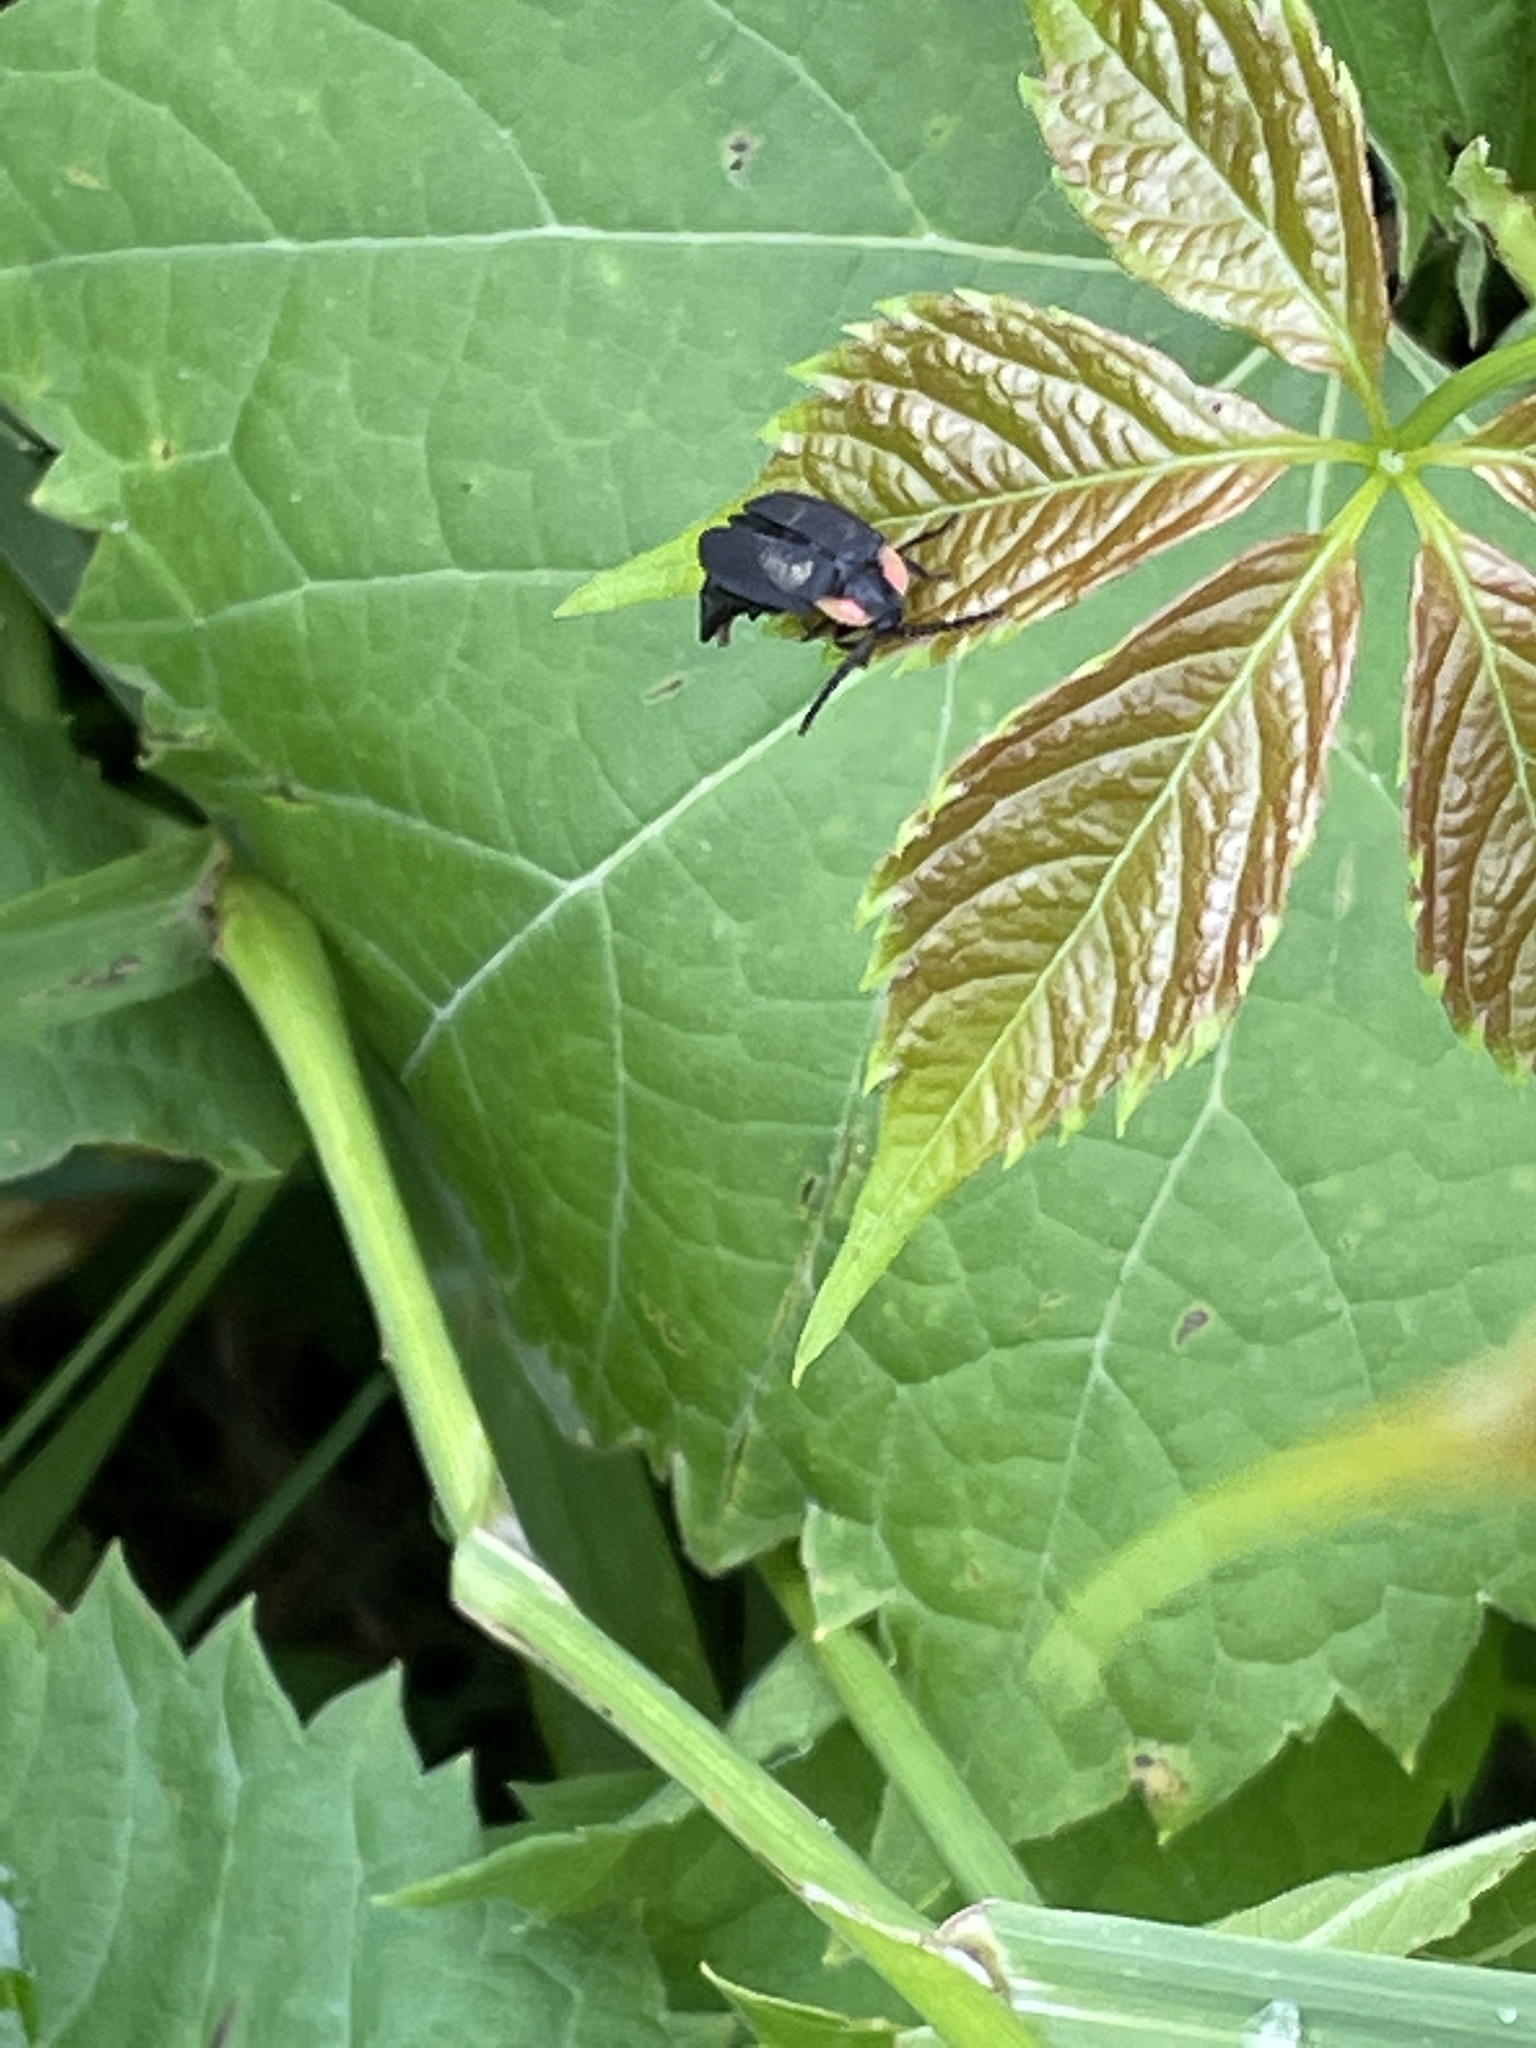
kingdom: Animalia
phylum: Arthropoda
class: Insecta
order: Coleoptera
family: Lampyridae
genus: Lucidota
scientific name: Lucidota atra
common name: Black firefly
